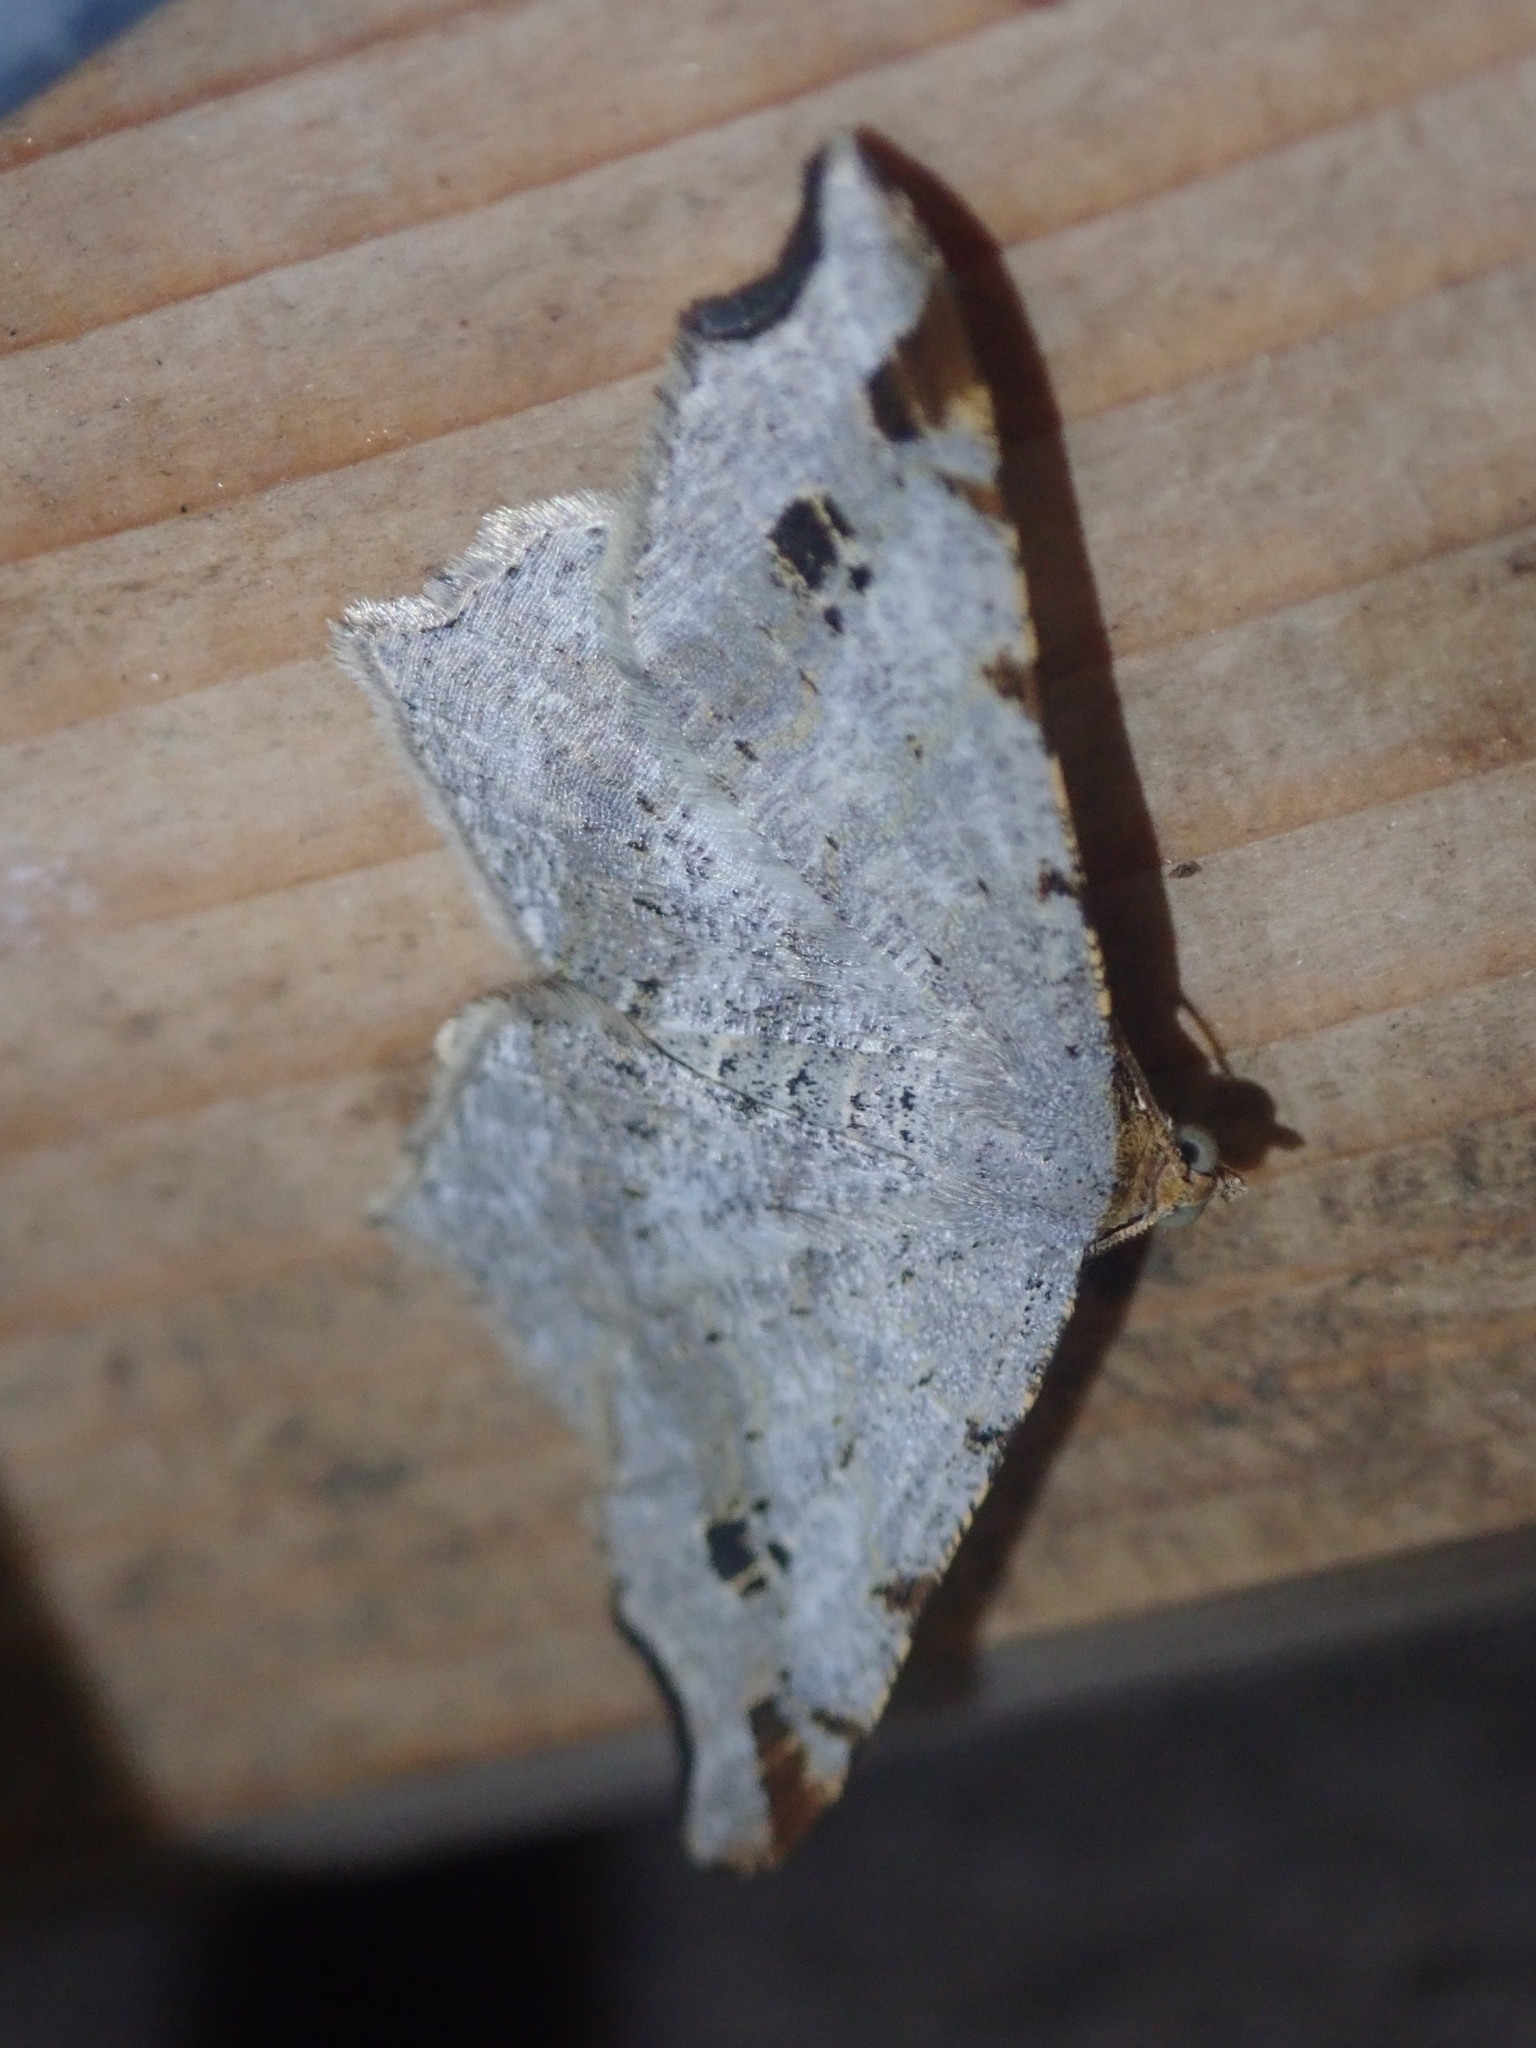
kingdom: Animalia
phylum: Arthropoda
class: Insecta
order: Lepidoptera
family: Geometridae
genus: Macaria
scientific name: Macaria alternata
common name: Sharp-angled peacock
